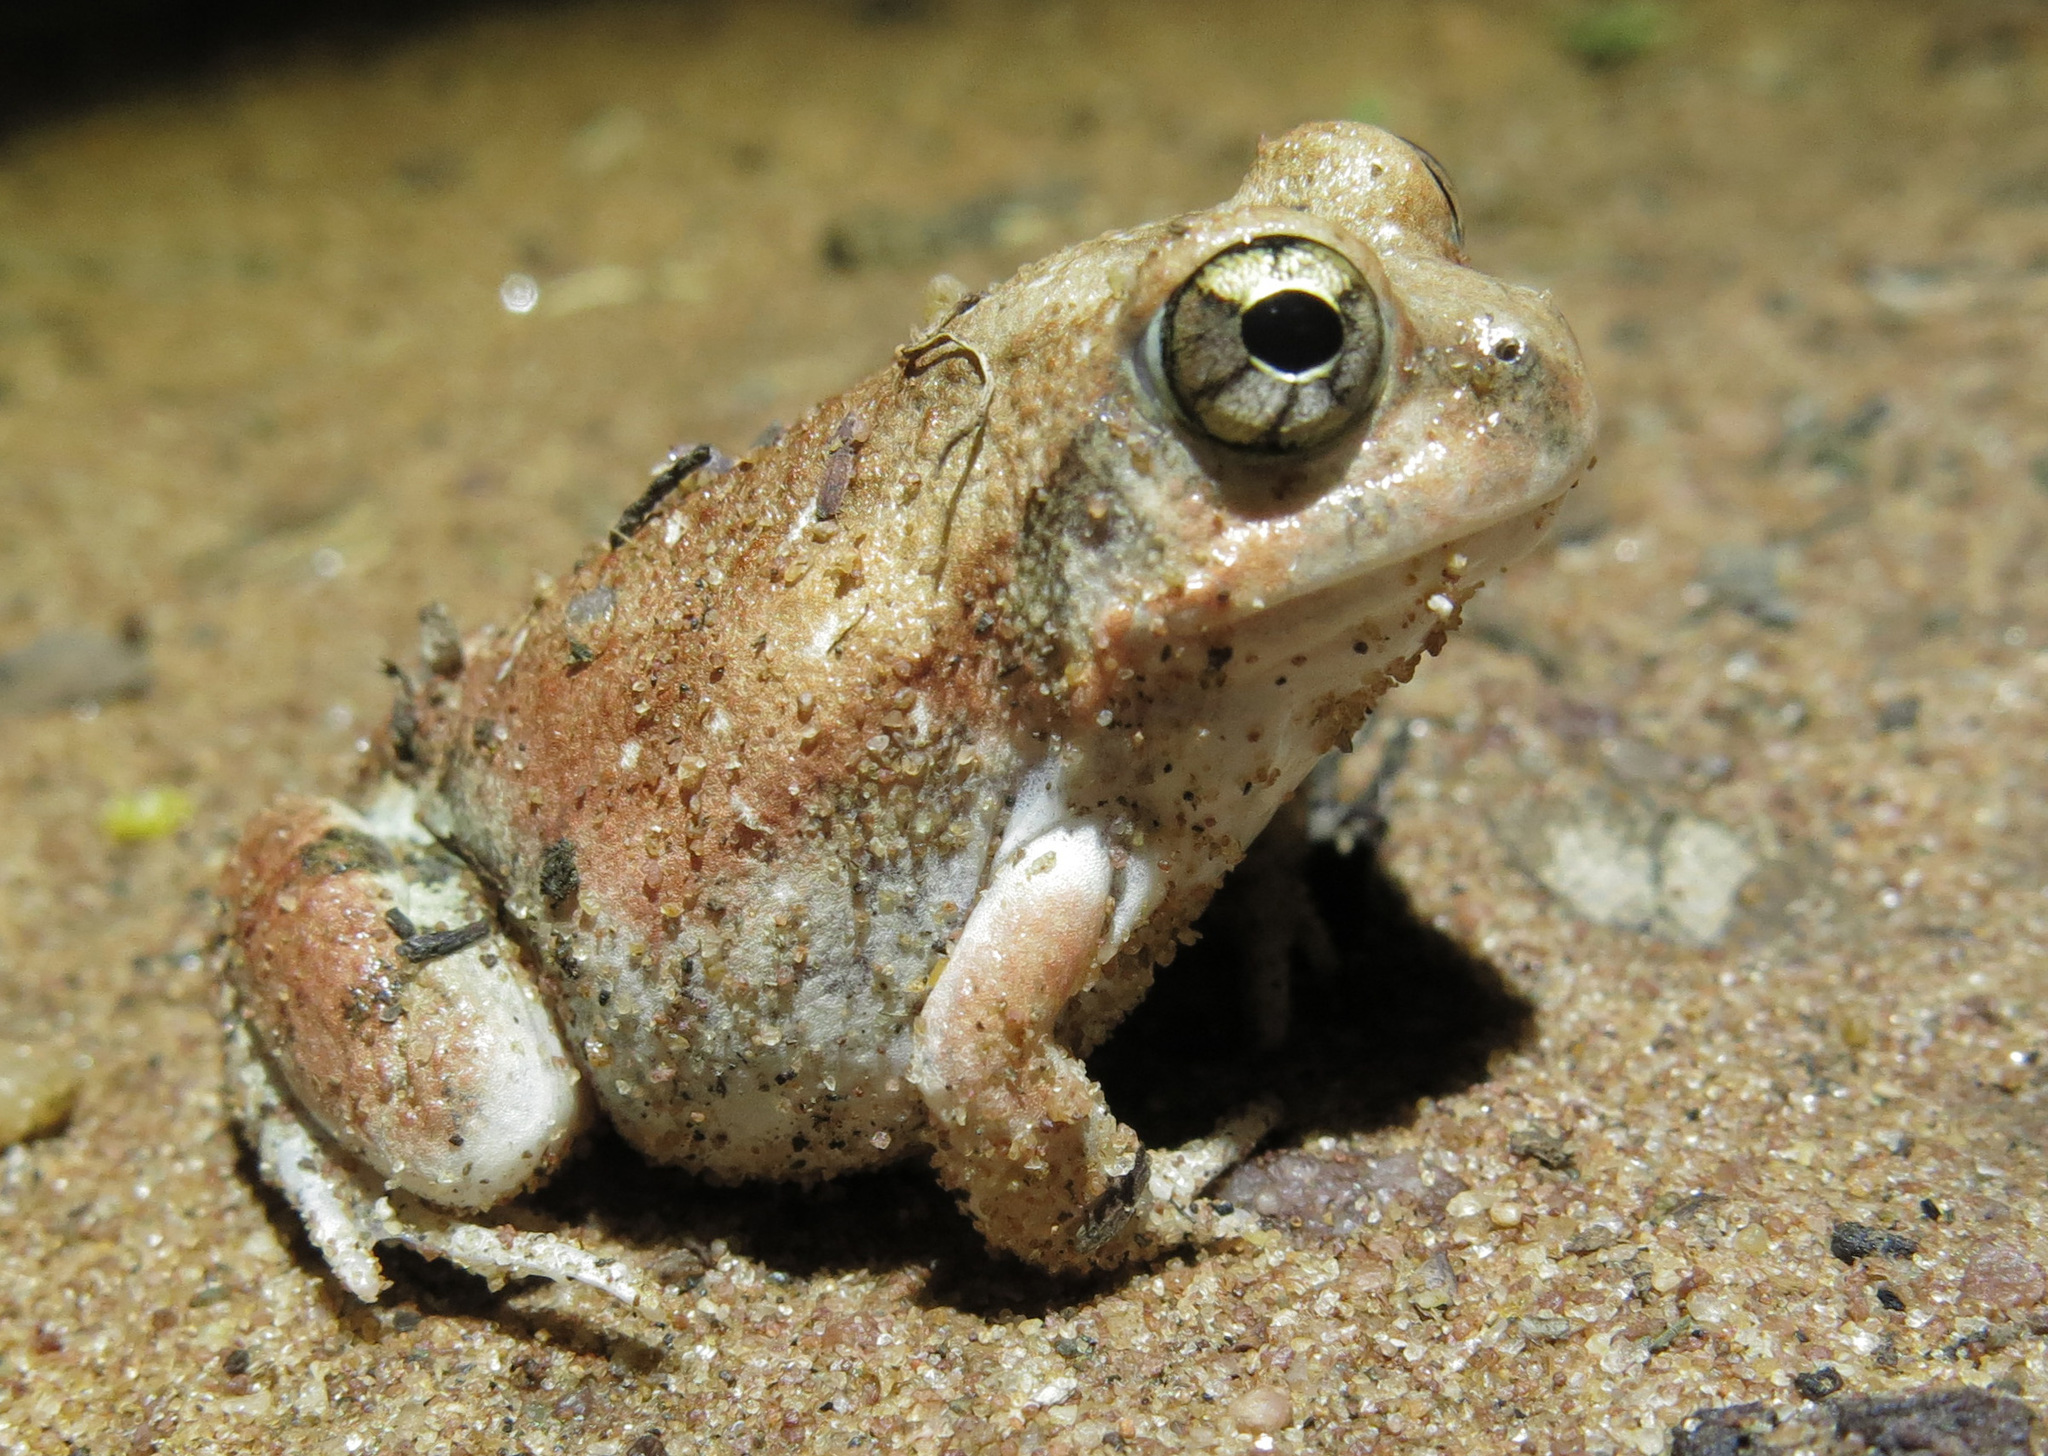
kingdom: Animalia
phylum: Chordata
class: Amphibia
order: Anura
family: Pyxicephalidae
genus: Tomopterna
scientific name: Tomopterna marmorata
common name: Russet-backed sand frog
